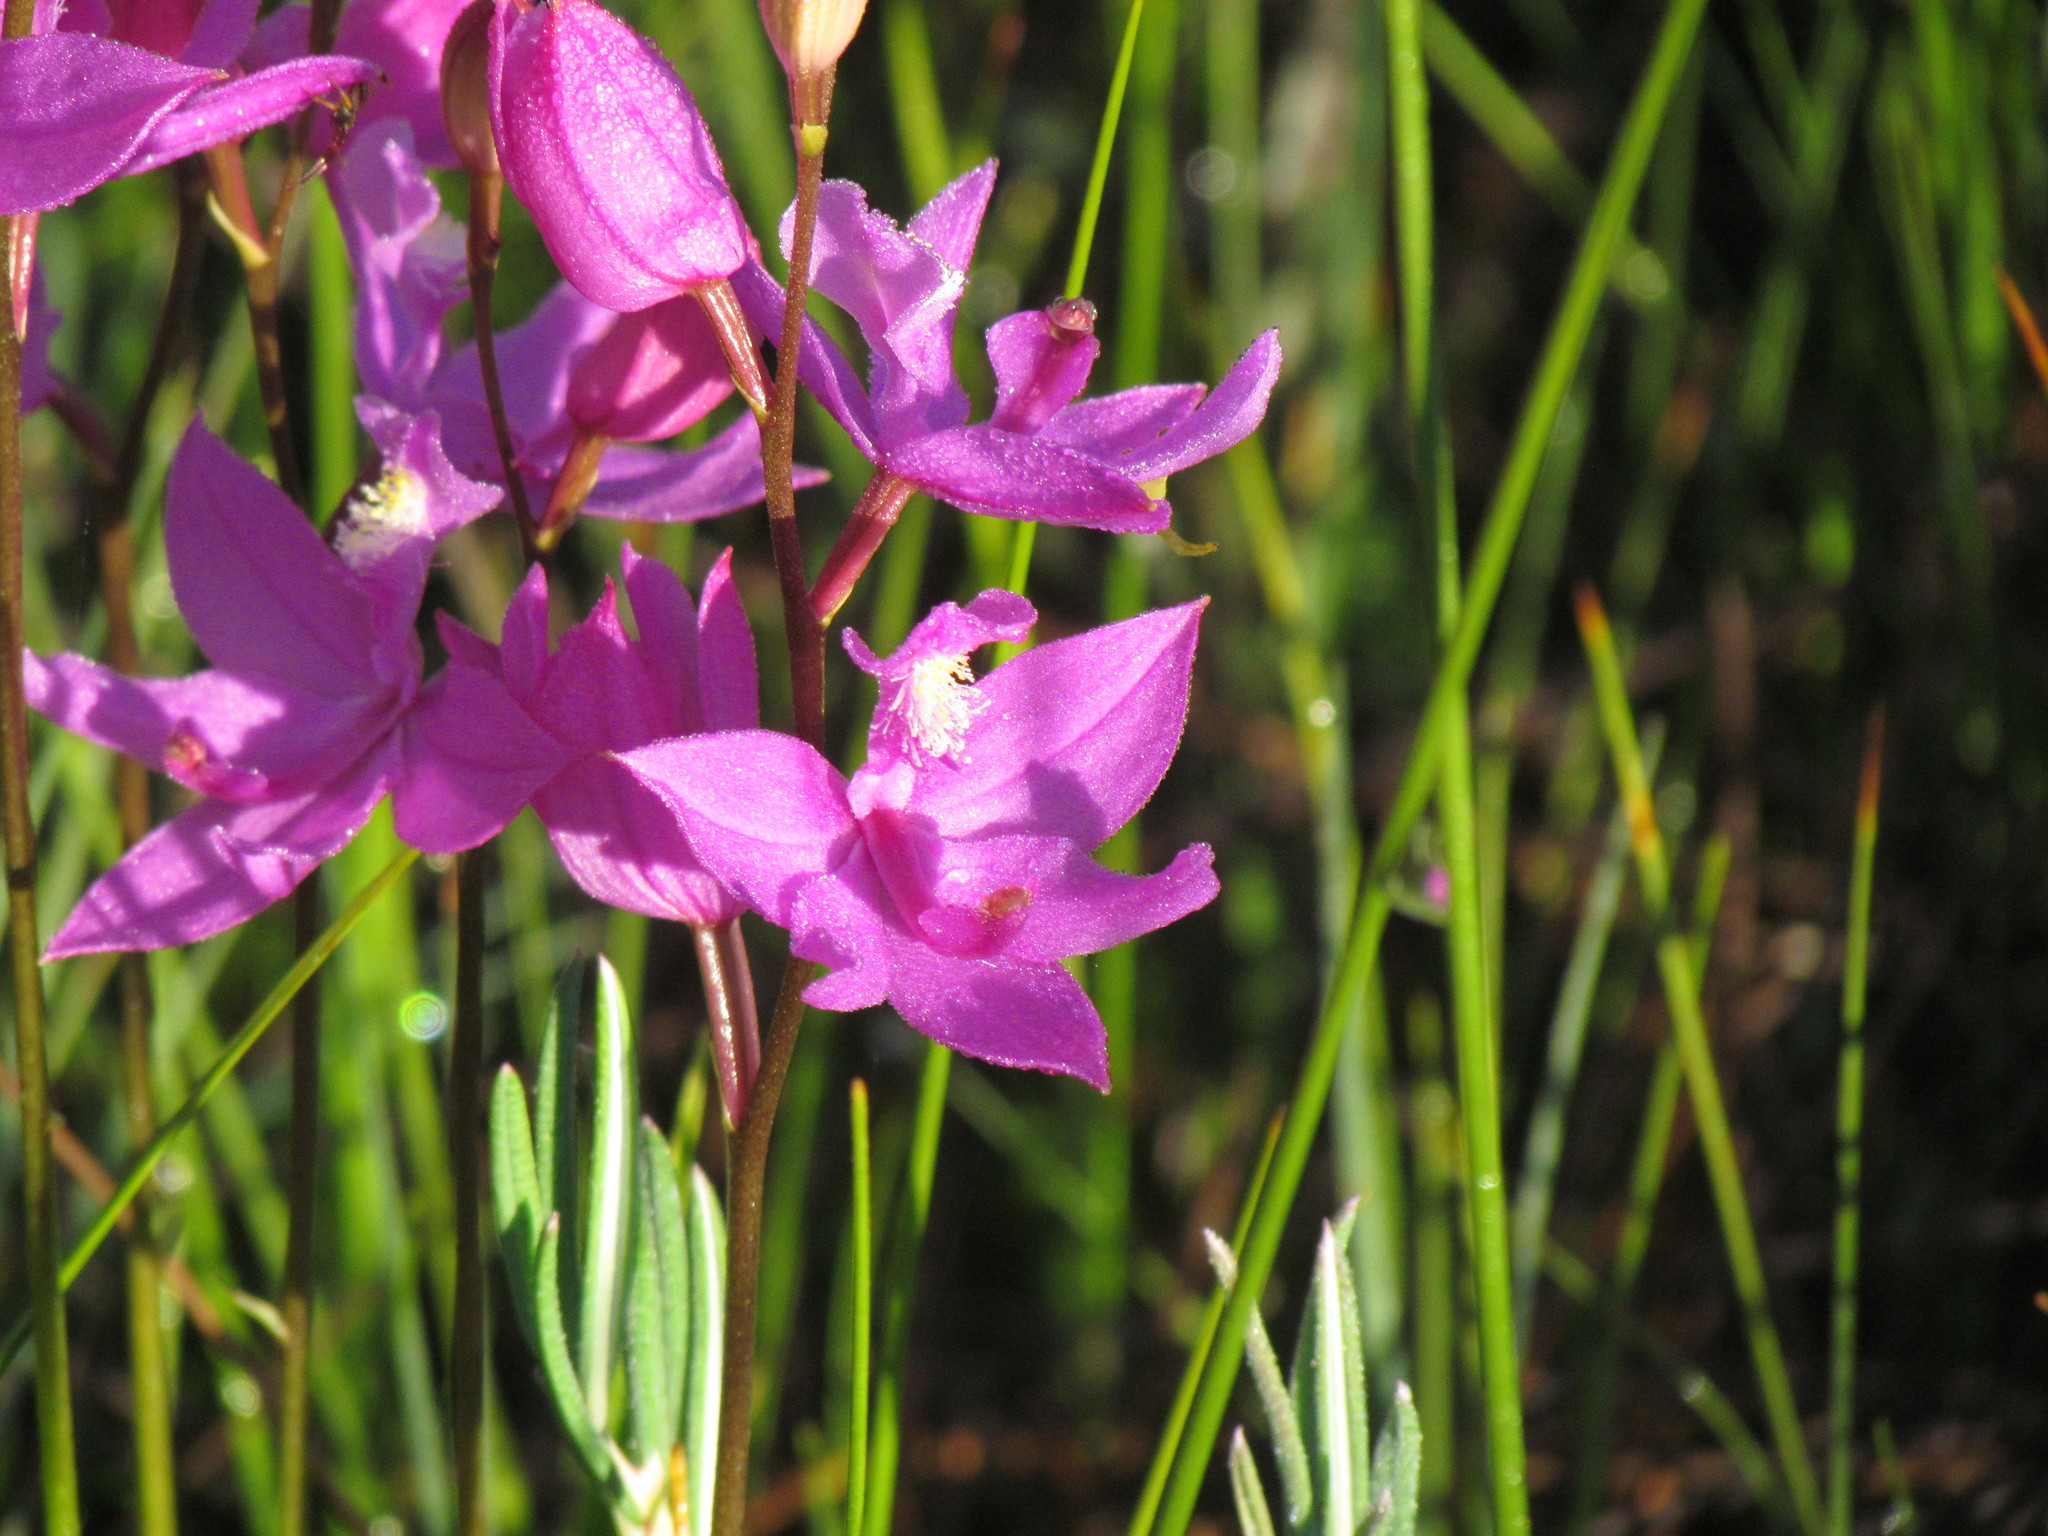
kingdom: Plantae
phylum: Tracheophyta
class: Liliopsida
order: Asparagales
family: Orchidaceae
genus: Calopogon
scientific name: Calopogon tuberosus
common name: Grass-pink
